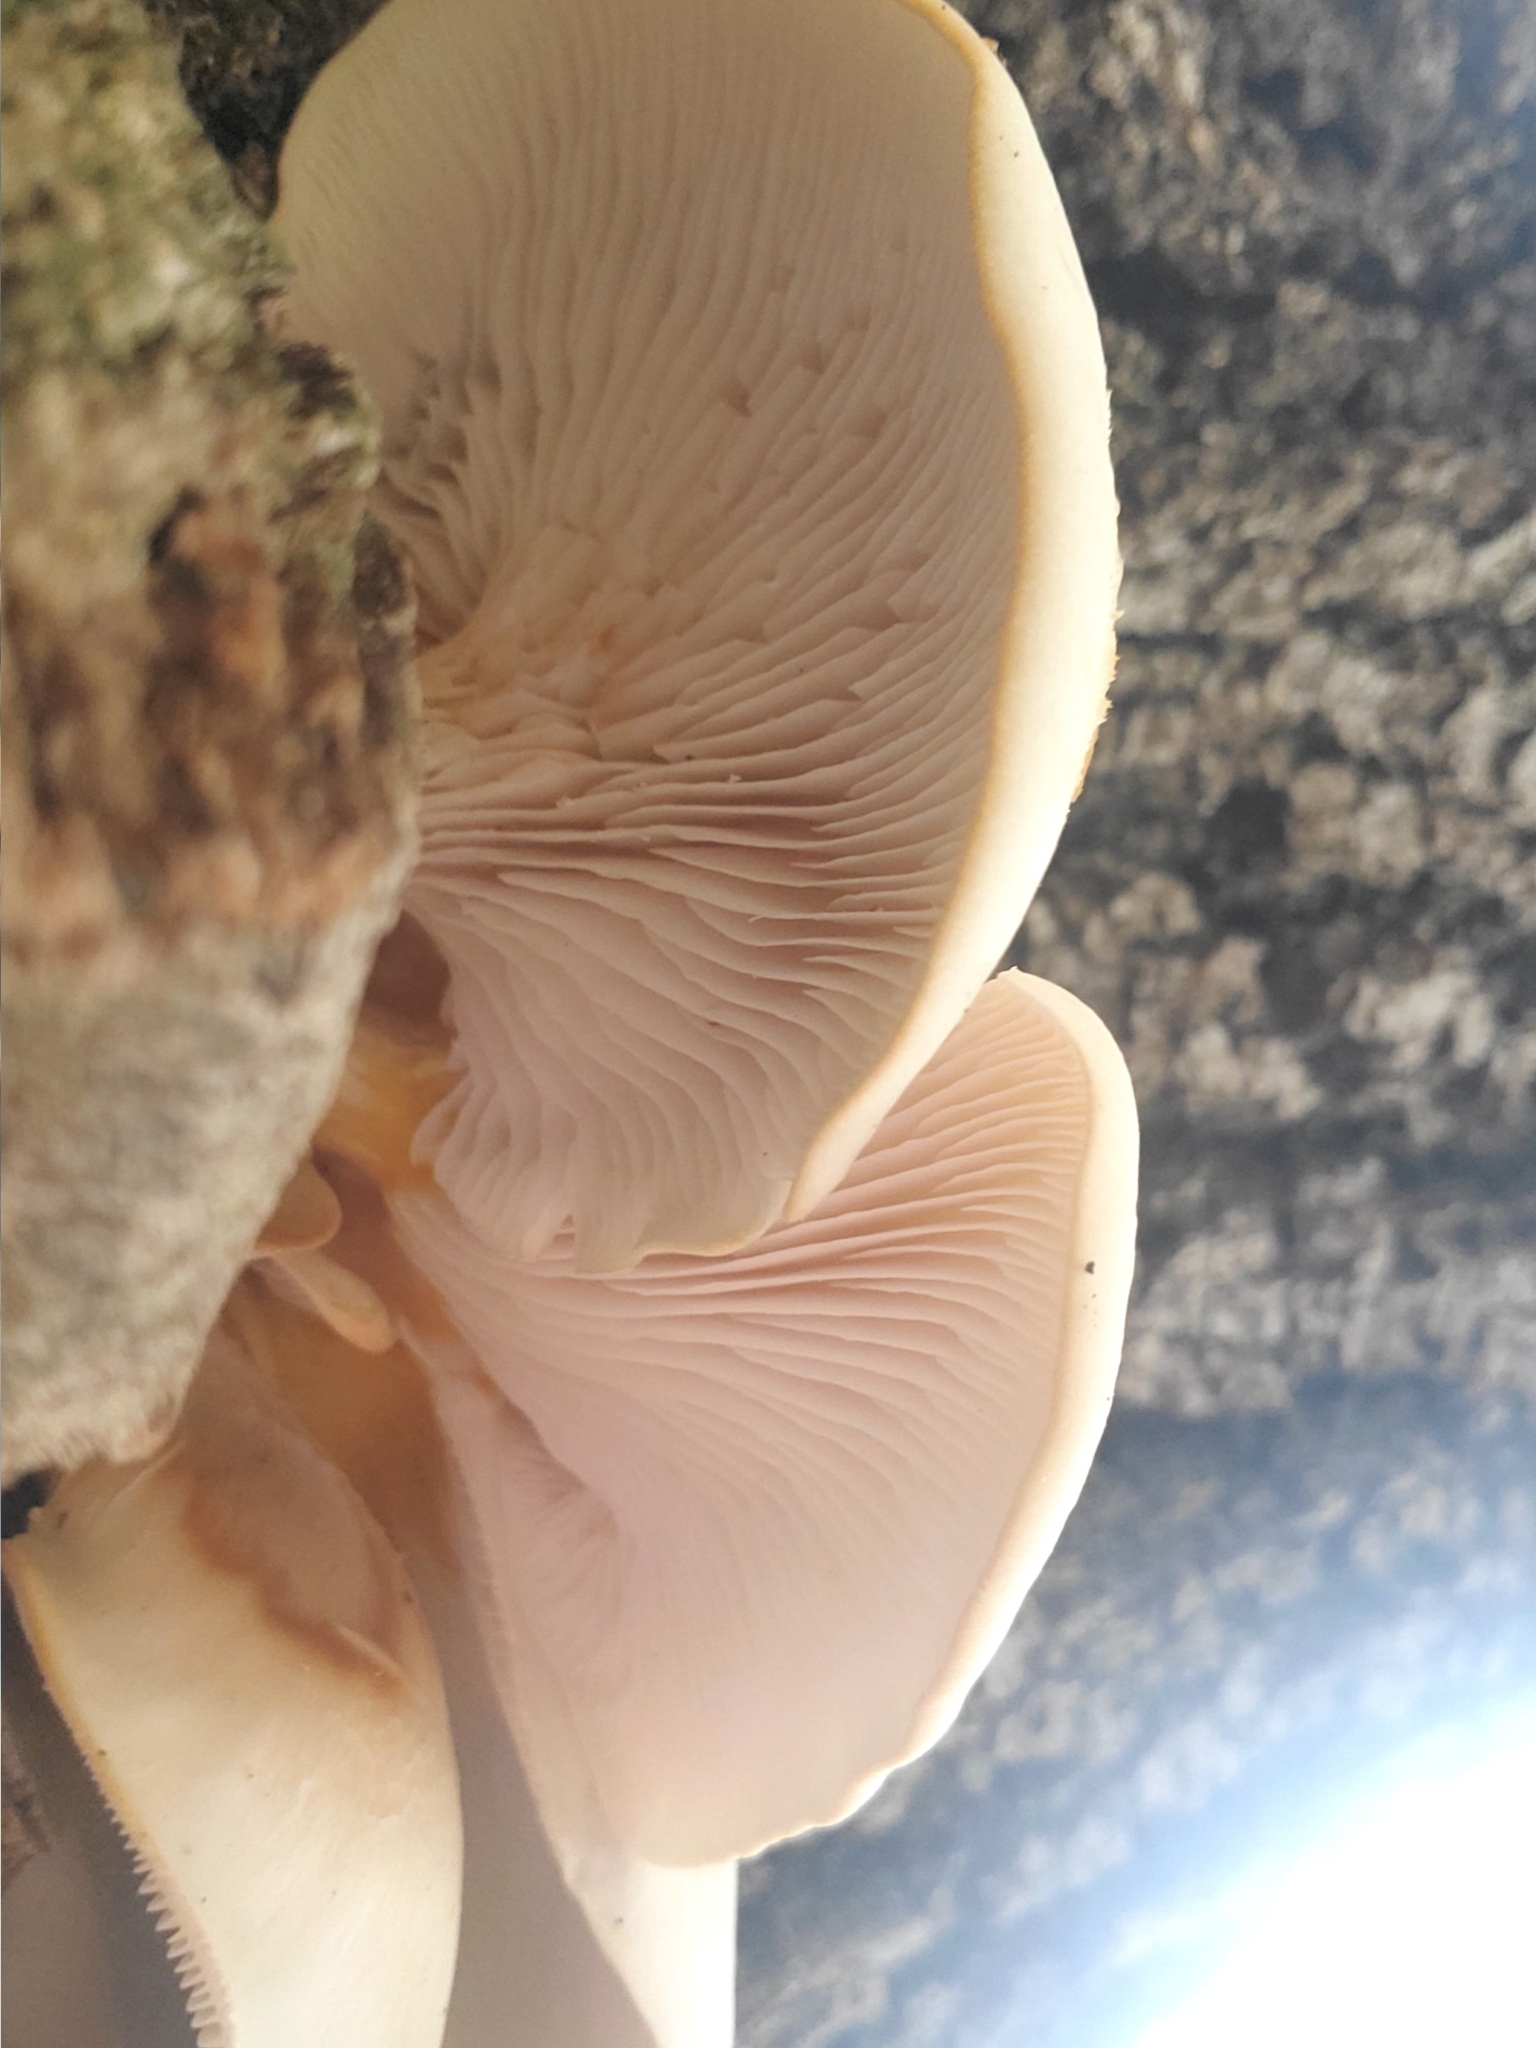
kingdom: Fungi
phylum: Basidiomycota
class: Agaricomycetes
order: Agaricales
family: Pleurotaceae
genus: Pleurotus
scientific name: Pleurotus pulmonarius
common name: Pale oyster
